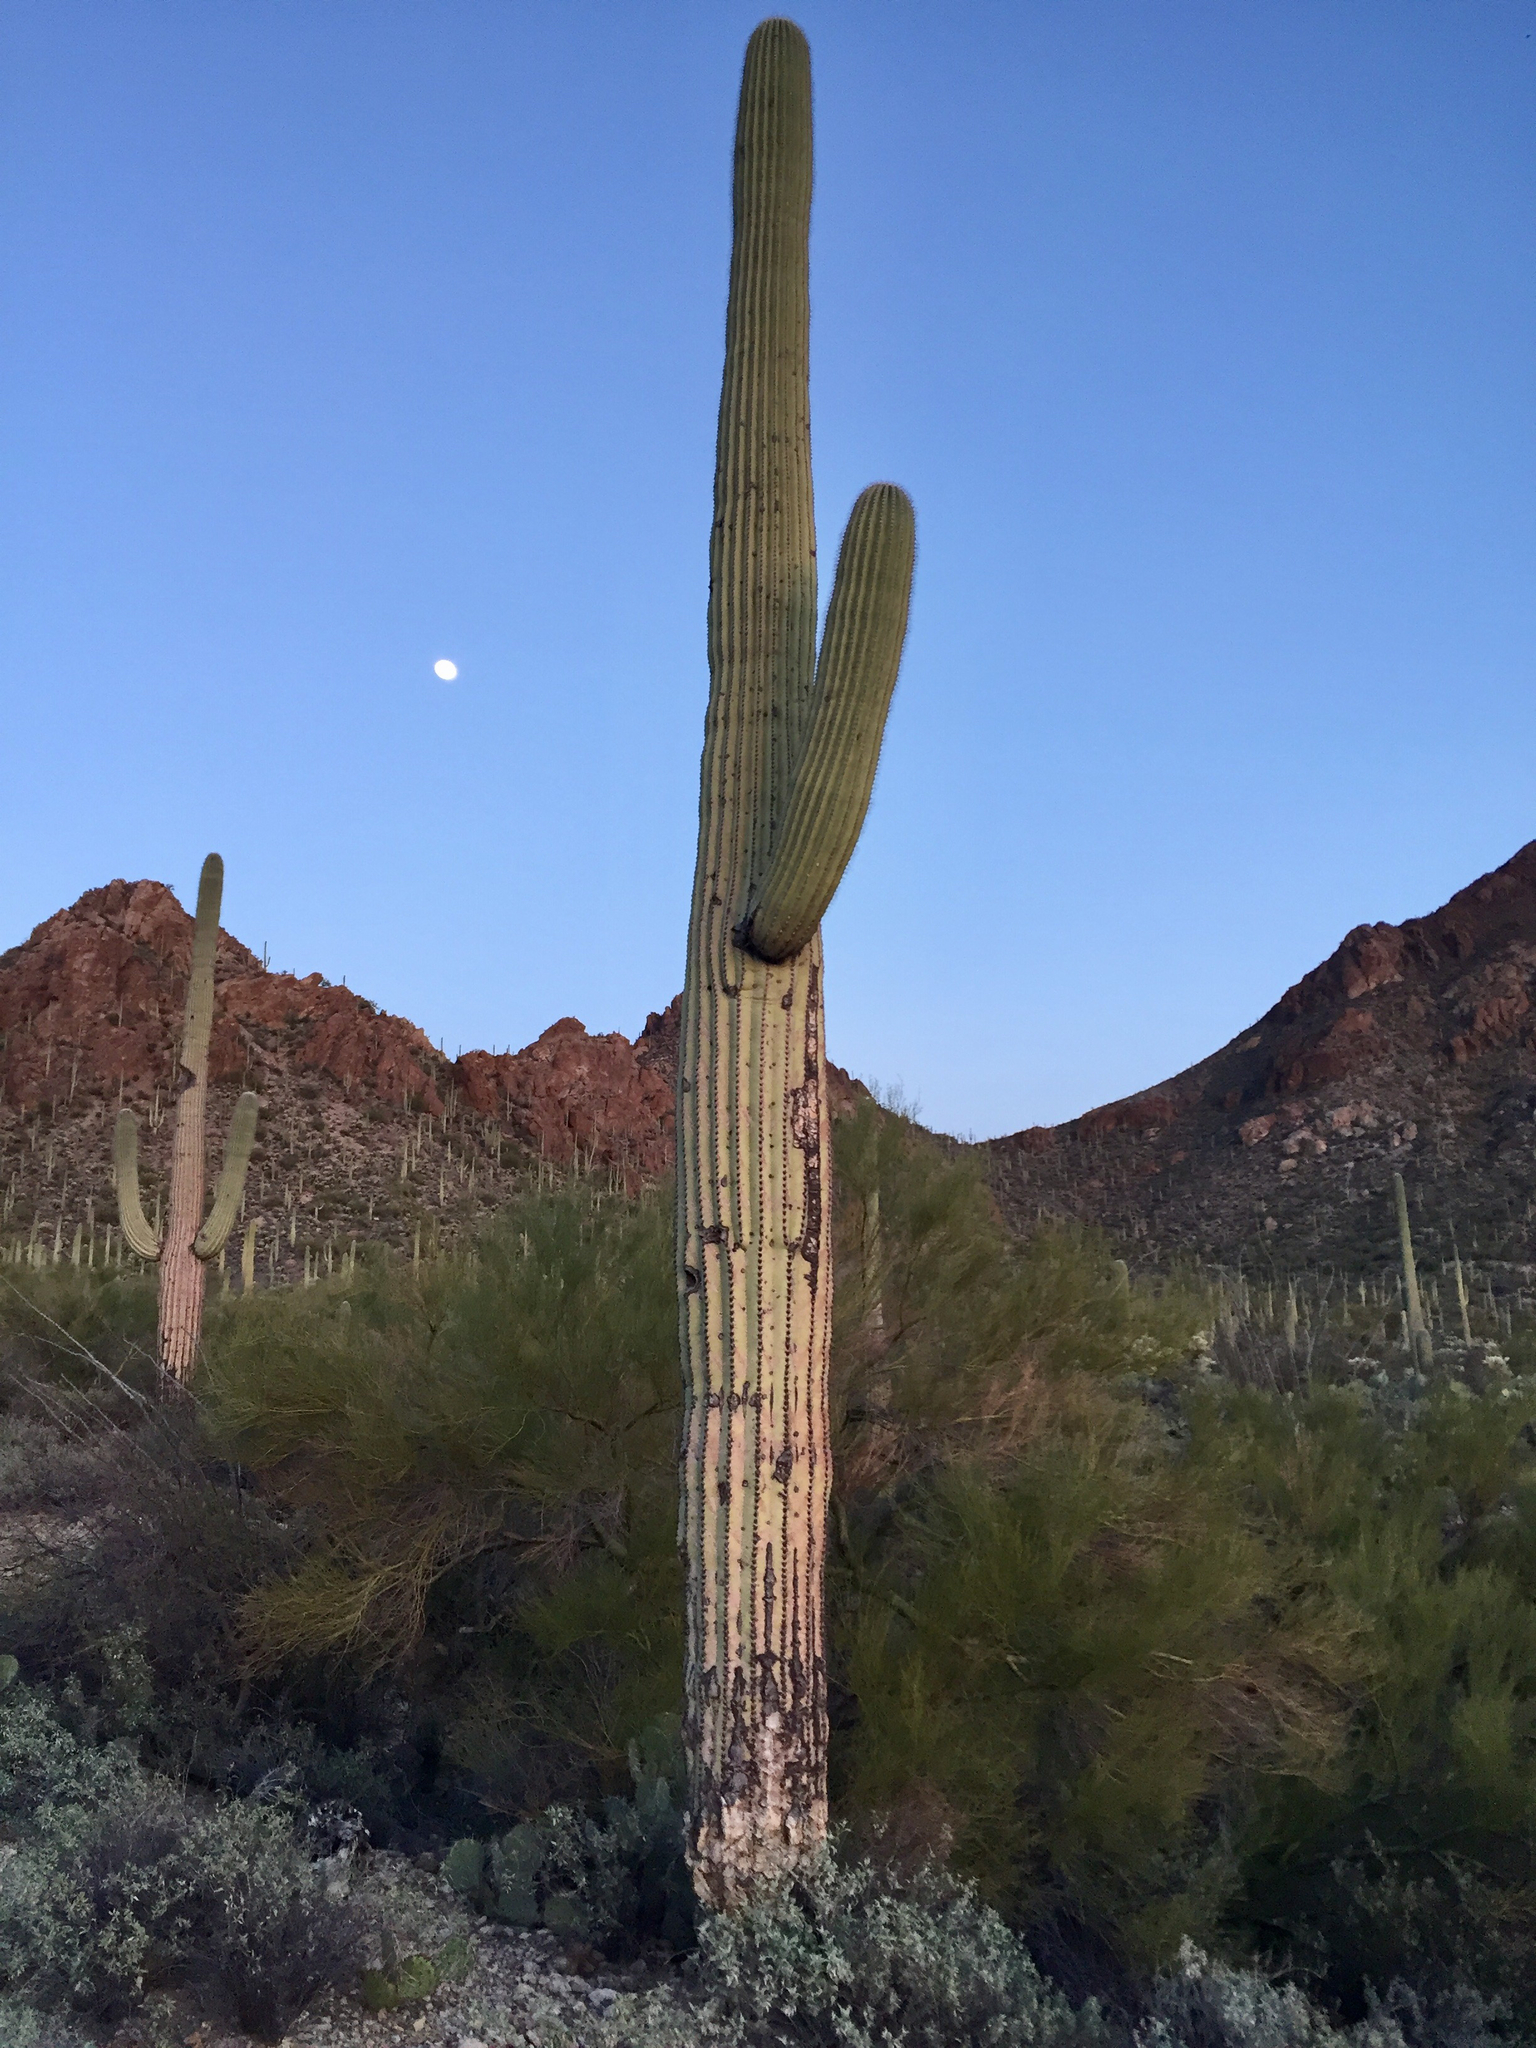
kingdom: Plantae
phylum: Tracheophyta
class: Magnoliopsida
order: Caryophyllales
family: Cactaceae
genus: Carnegiea
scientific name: Carnegiea gigantea
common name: Saguaro
